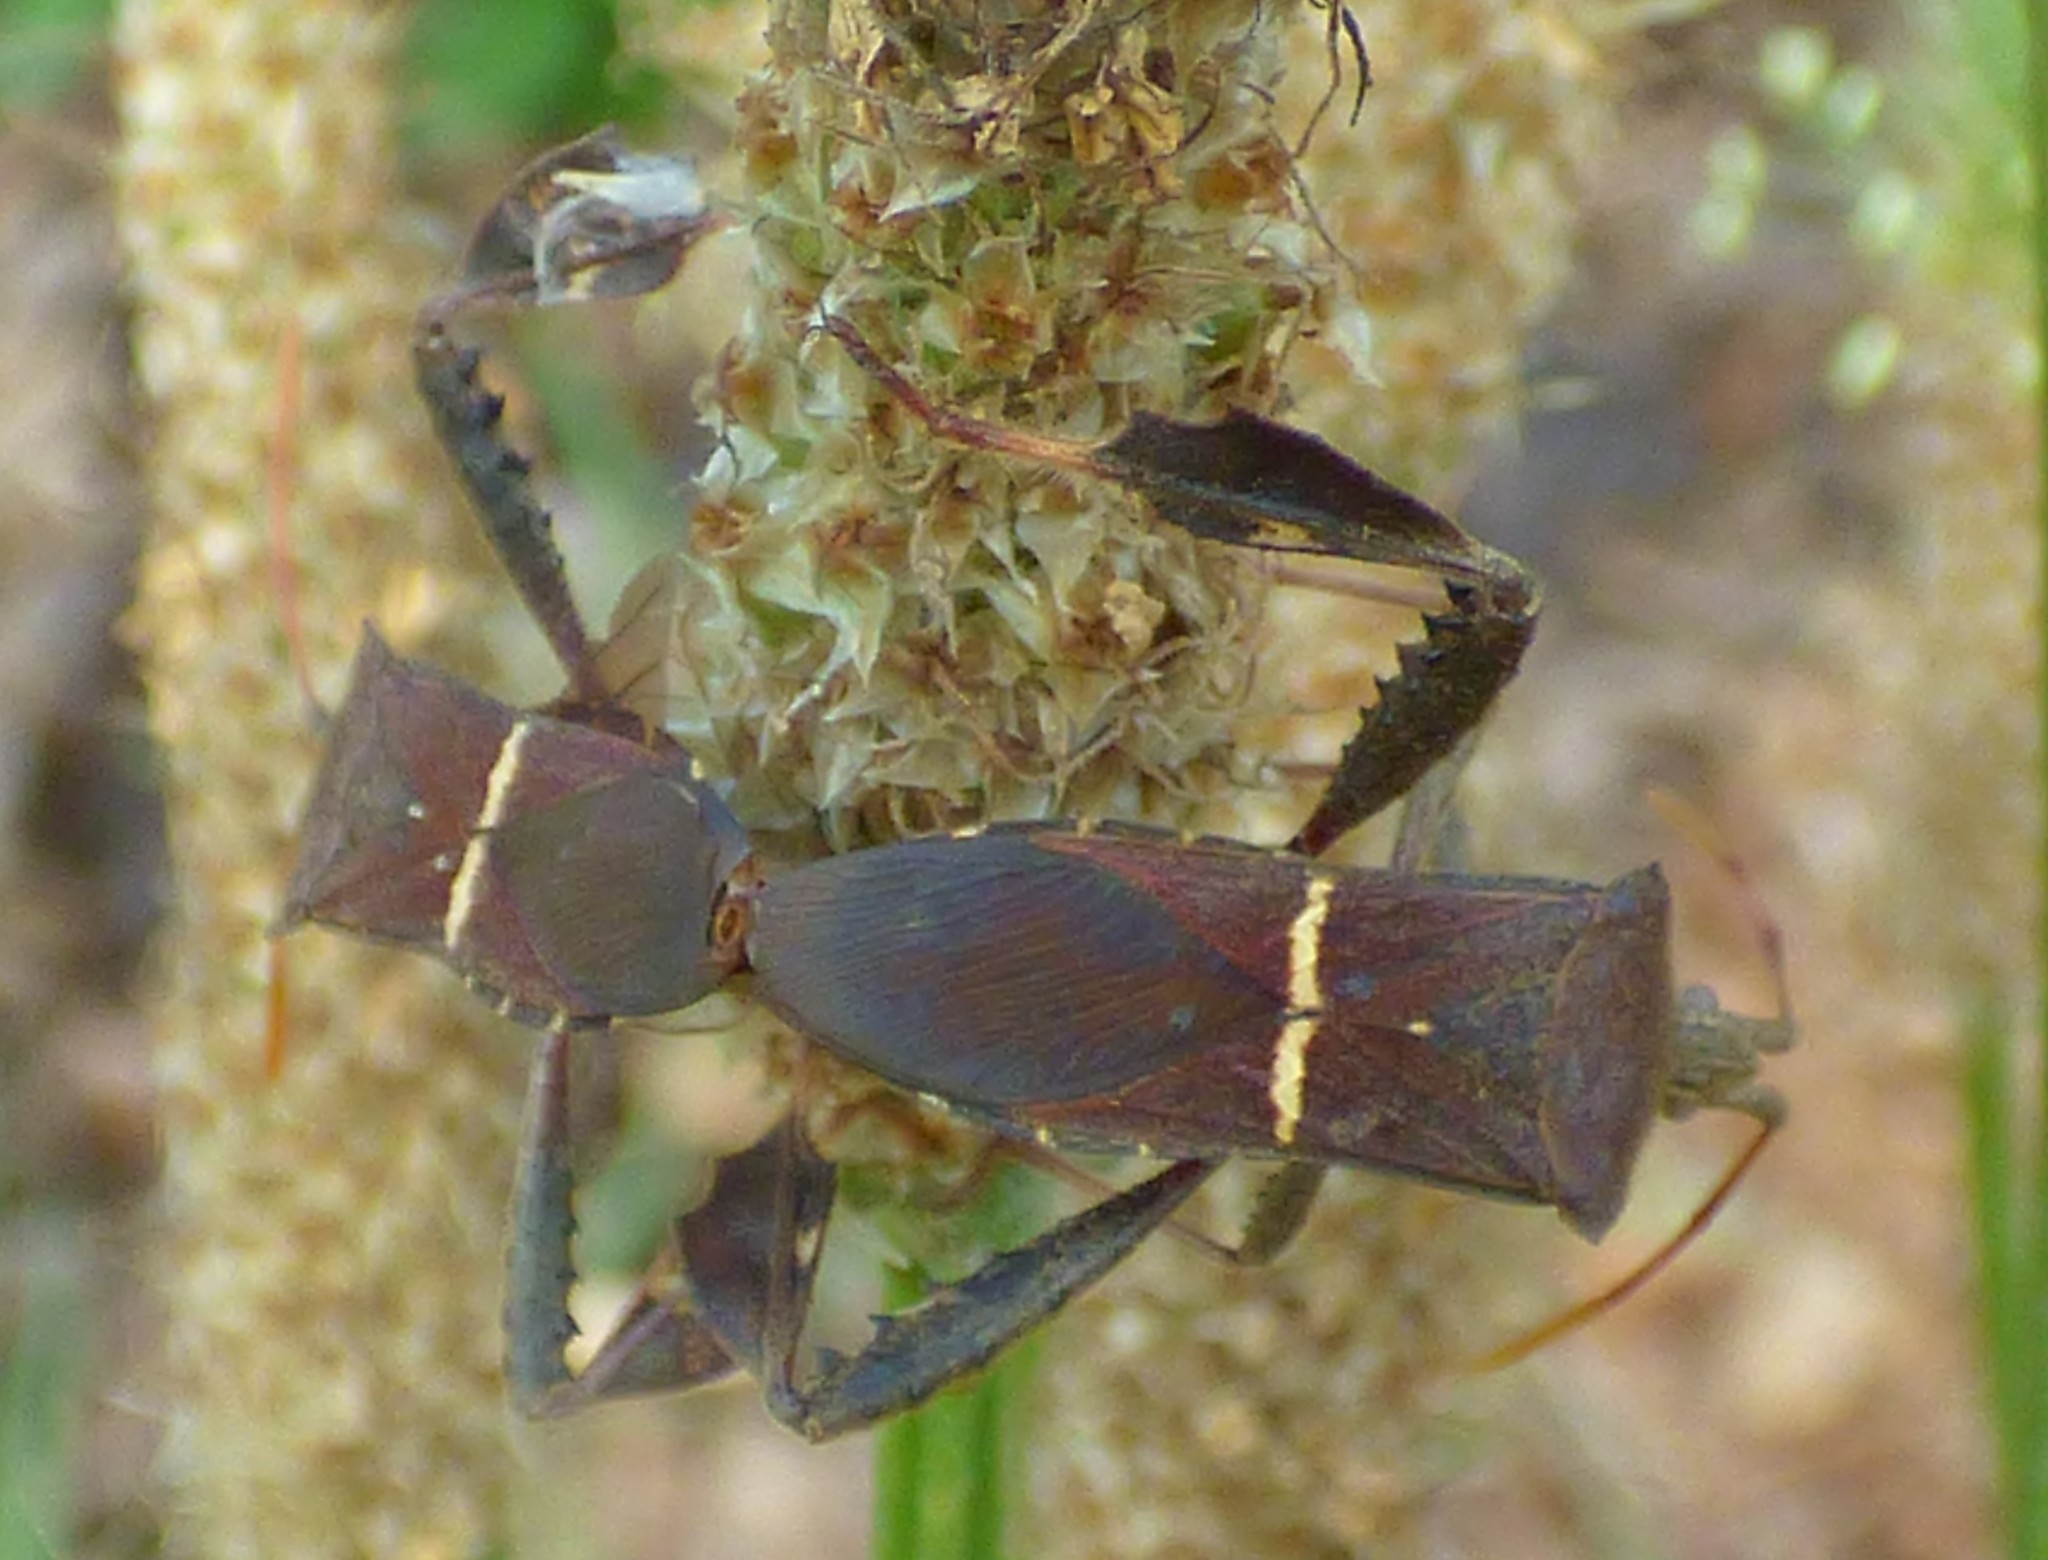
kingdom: Animalia
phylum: Arthropoda
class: Insecta
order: Hemiptera
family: Coreidae
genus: Leptoglossus
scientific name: Leptoglossus phyllopus
